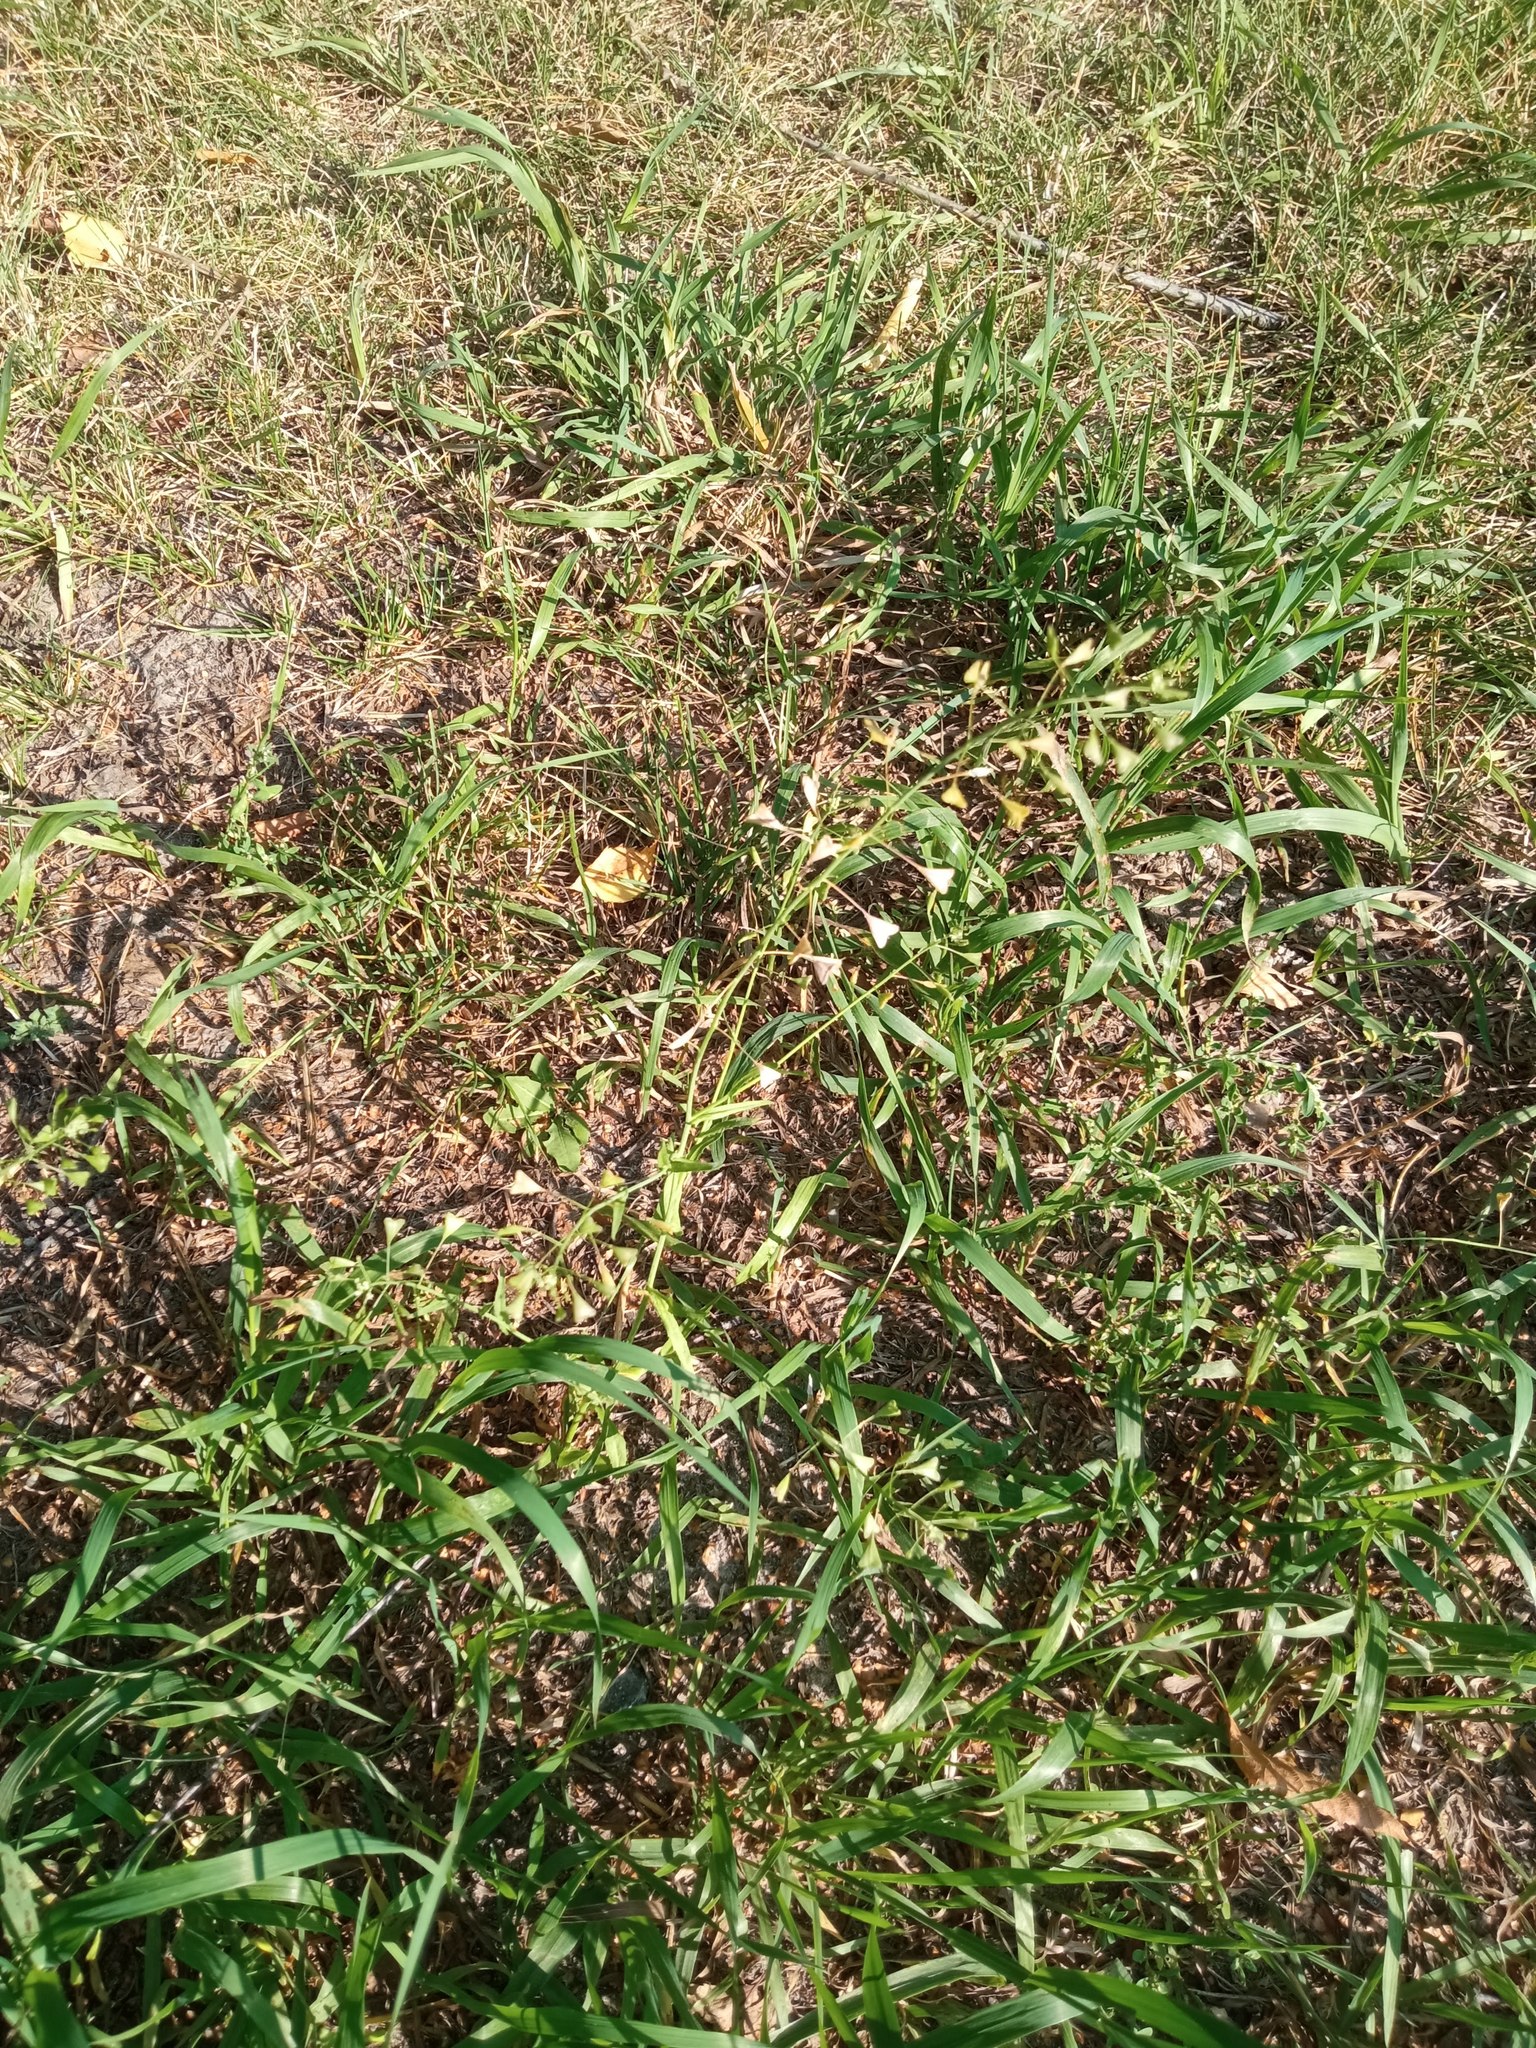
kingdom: Plantae
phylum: Tracheophyta
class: Magnoliopsida
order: Brassicales
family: Brassicaceae
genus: Capsella
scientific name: Capsella bursa-pastoris
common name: Shepherd's purse
